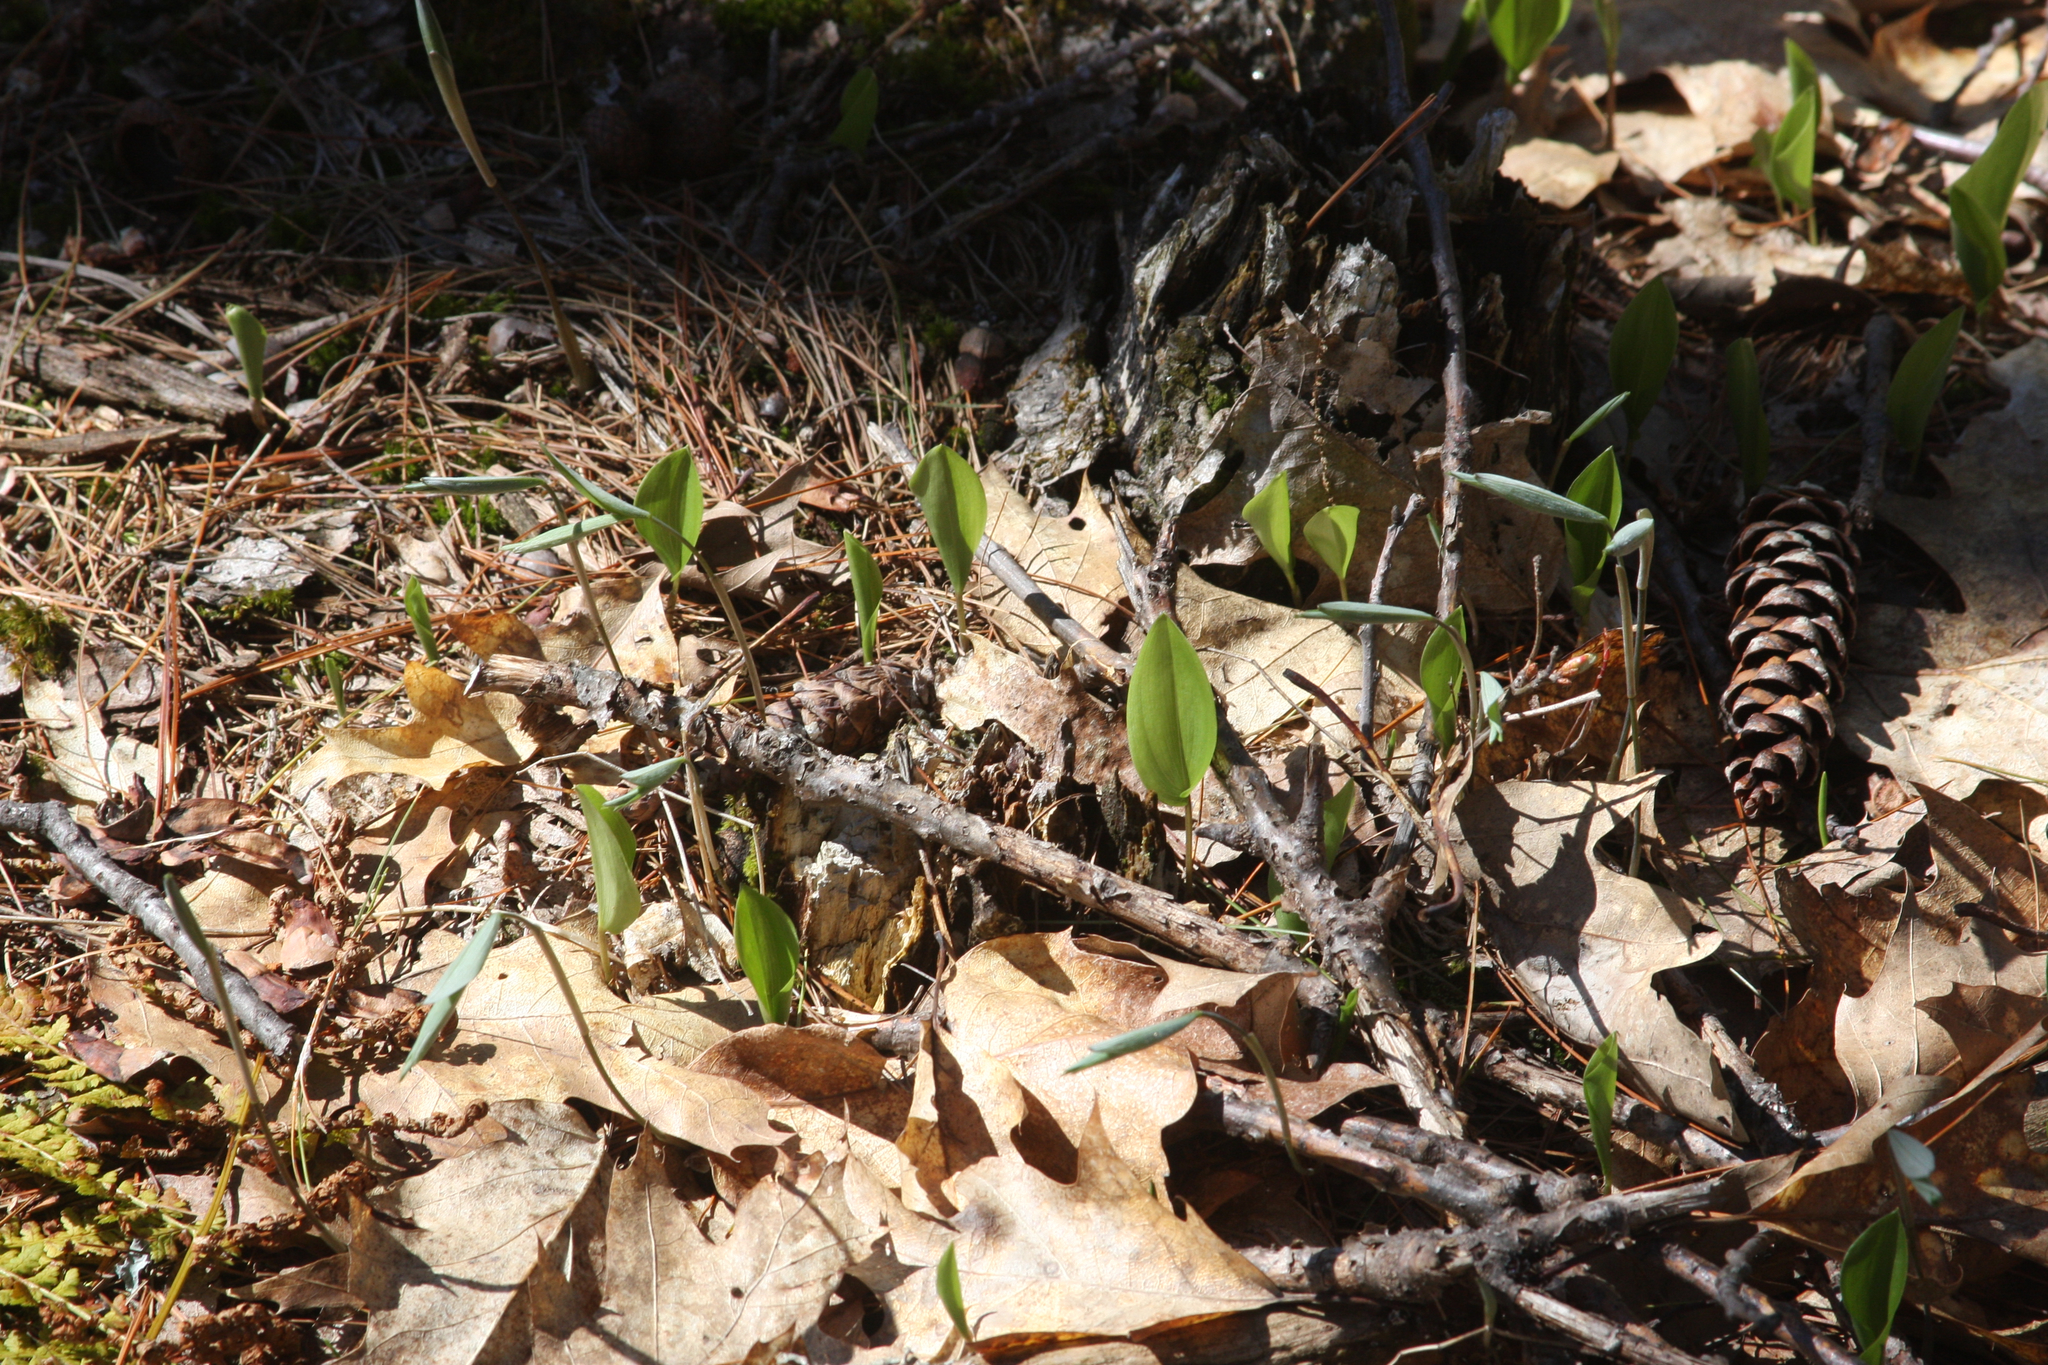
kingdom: Plantae
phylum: Tracheophyta
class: Liliopsida
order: Asparagales
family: Asparagaceae
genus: Maianthemum
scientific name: Maianthemum canadense
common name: False lily-of-the-valley
